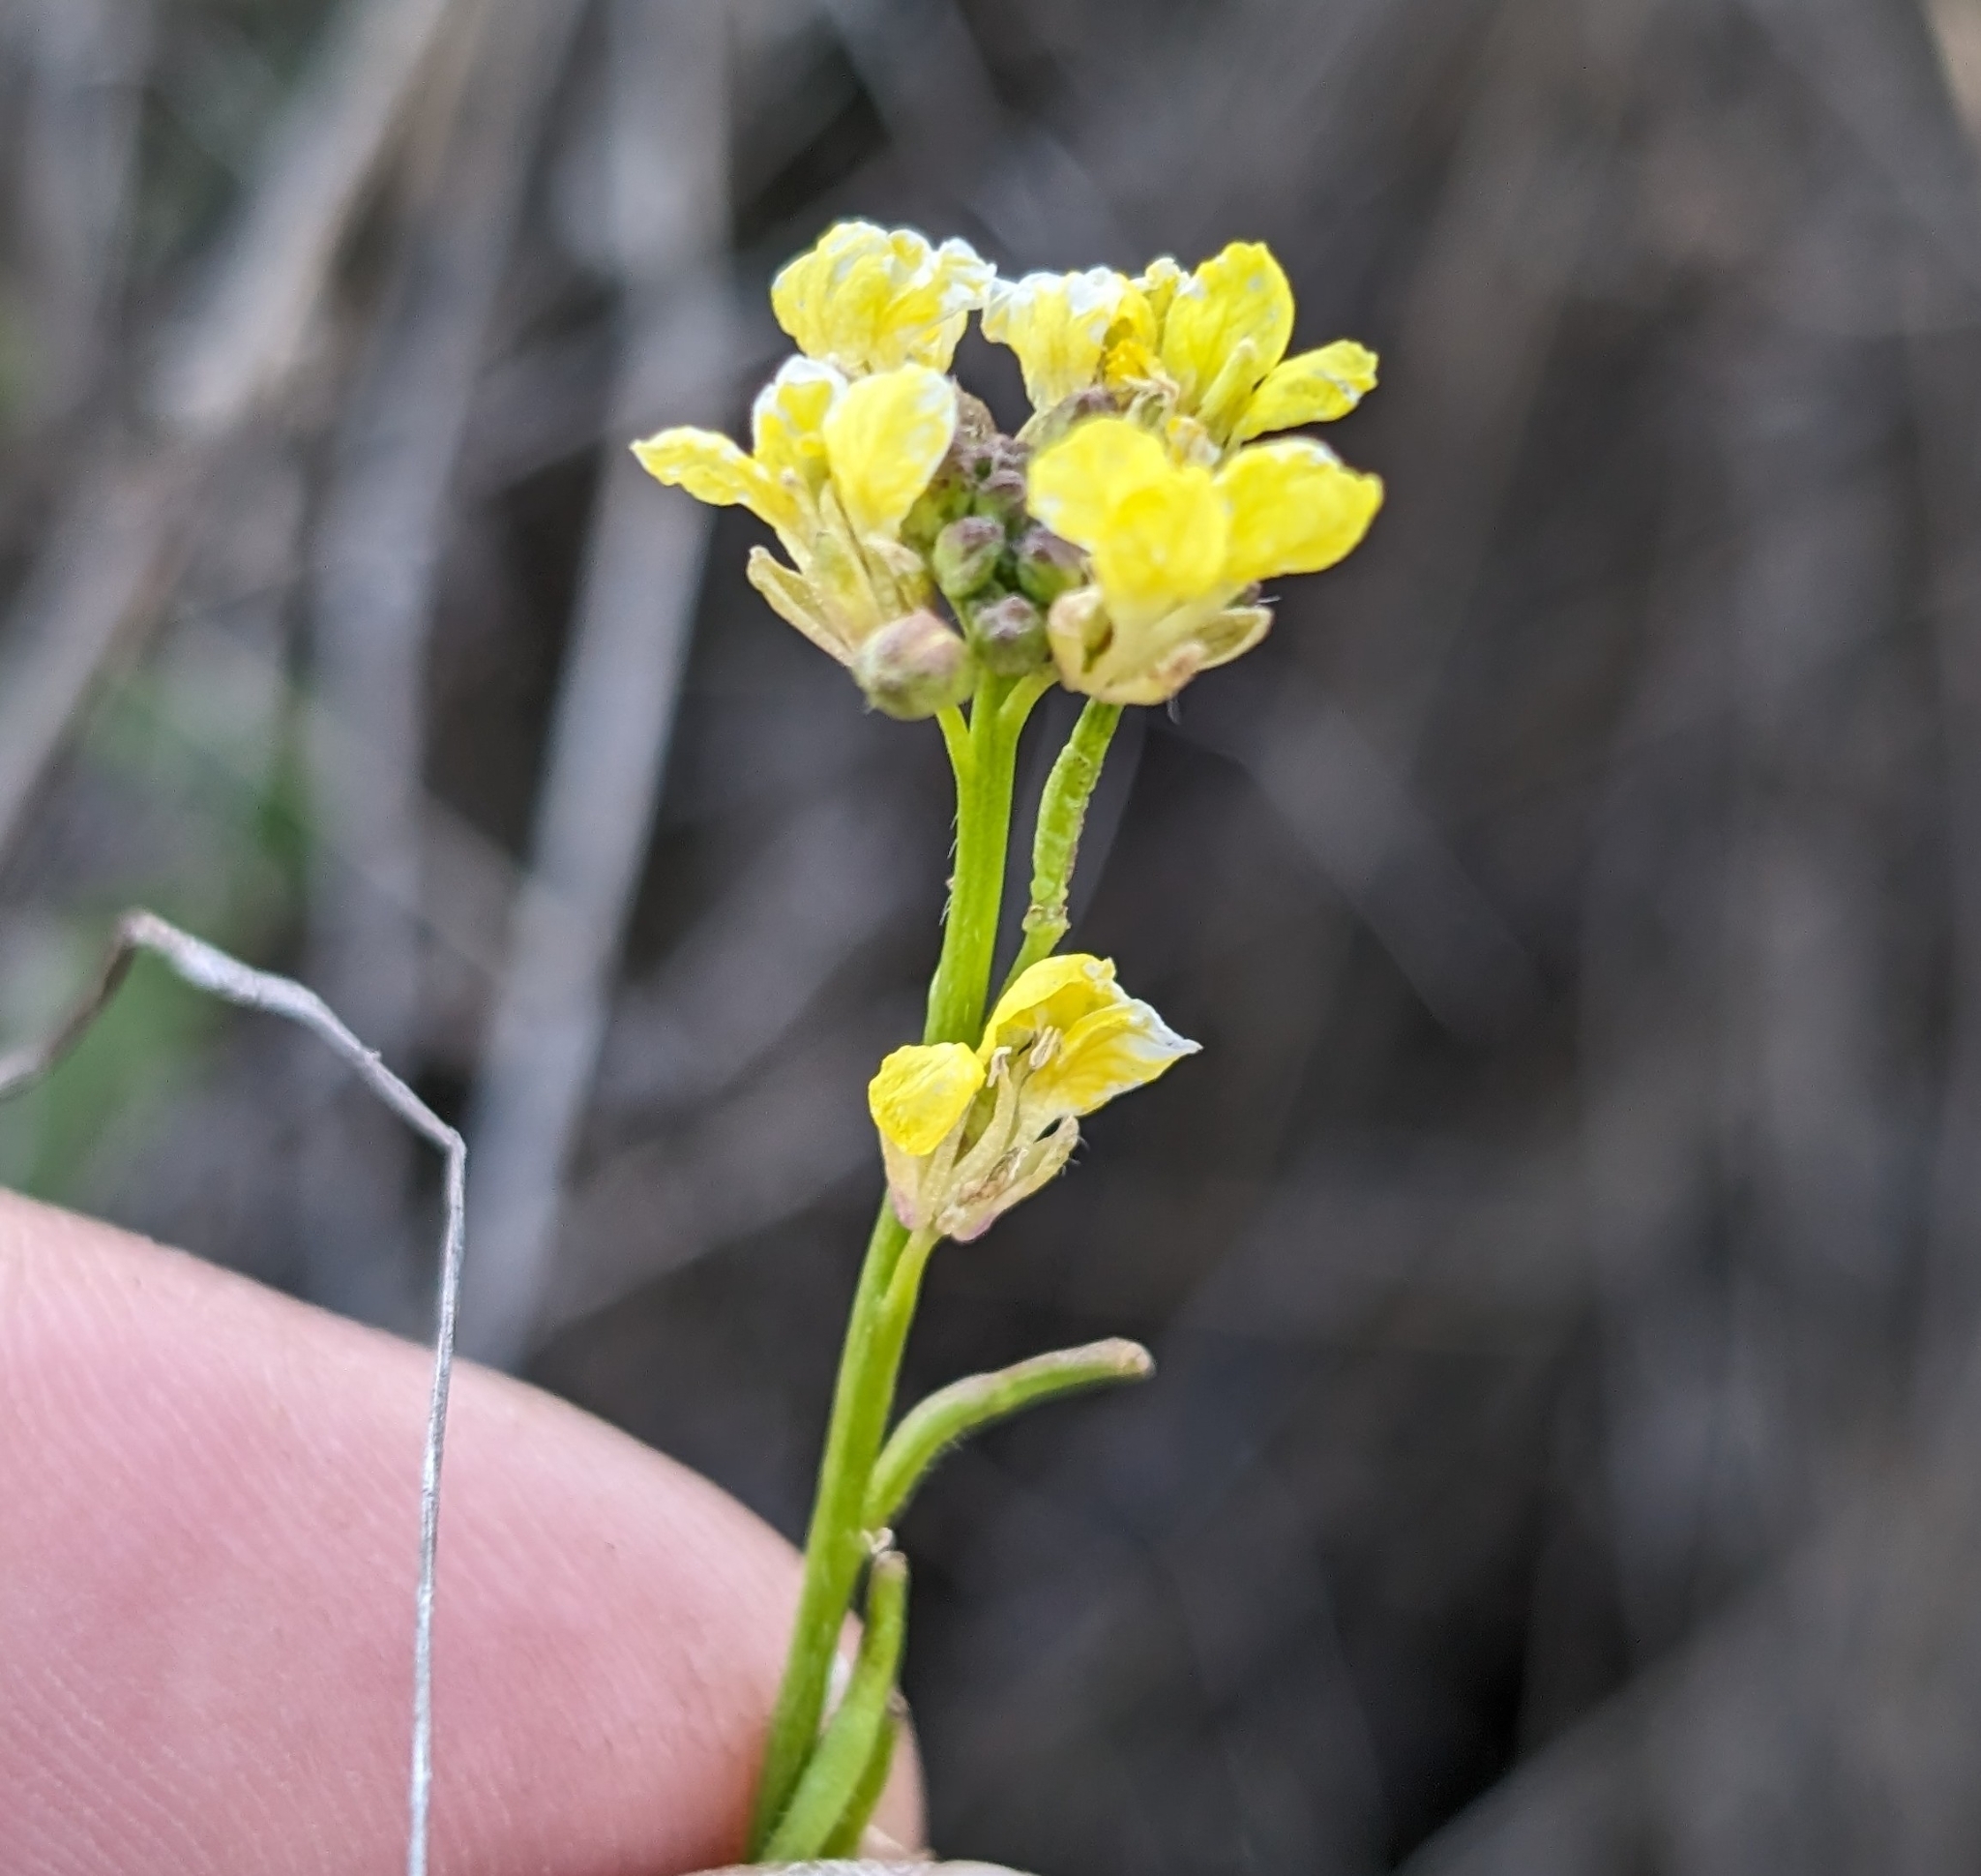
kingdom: Plantae
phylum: Tracheophyta
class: Magnoliopsida
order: Brassicales
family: Brassicaceae
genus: Hirschfeldia
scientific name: Hirschfeldia incana
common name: Hoary mustard
